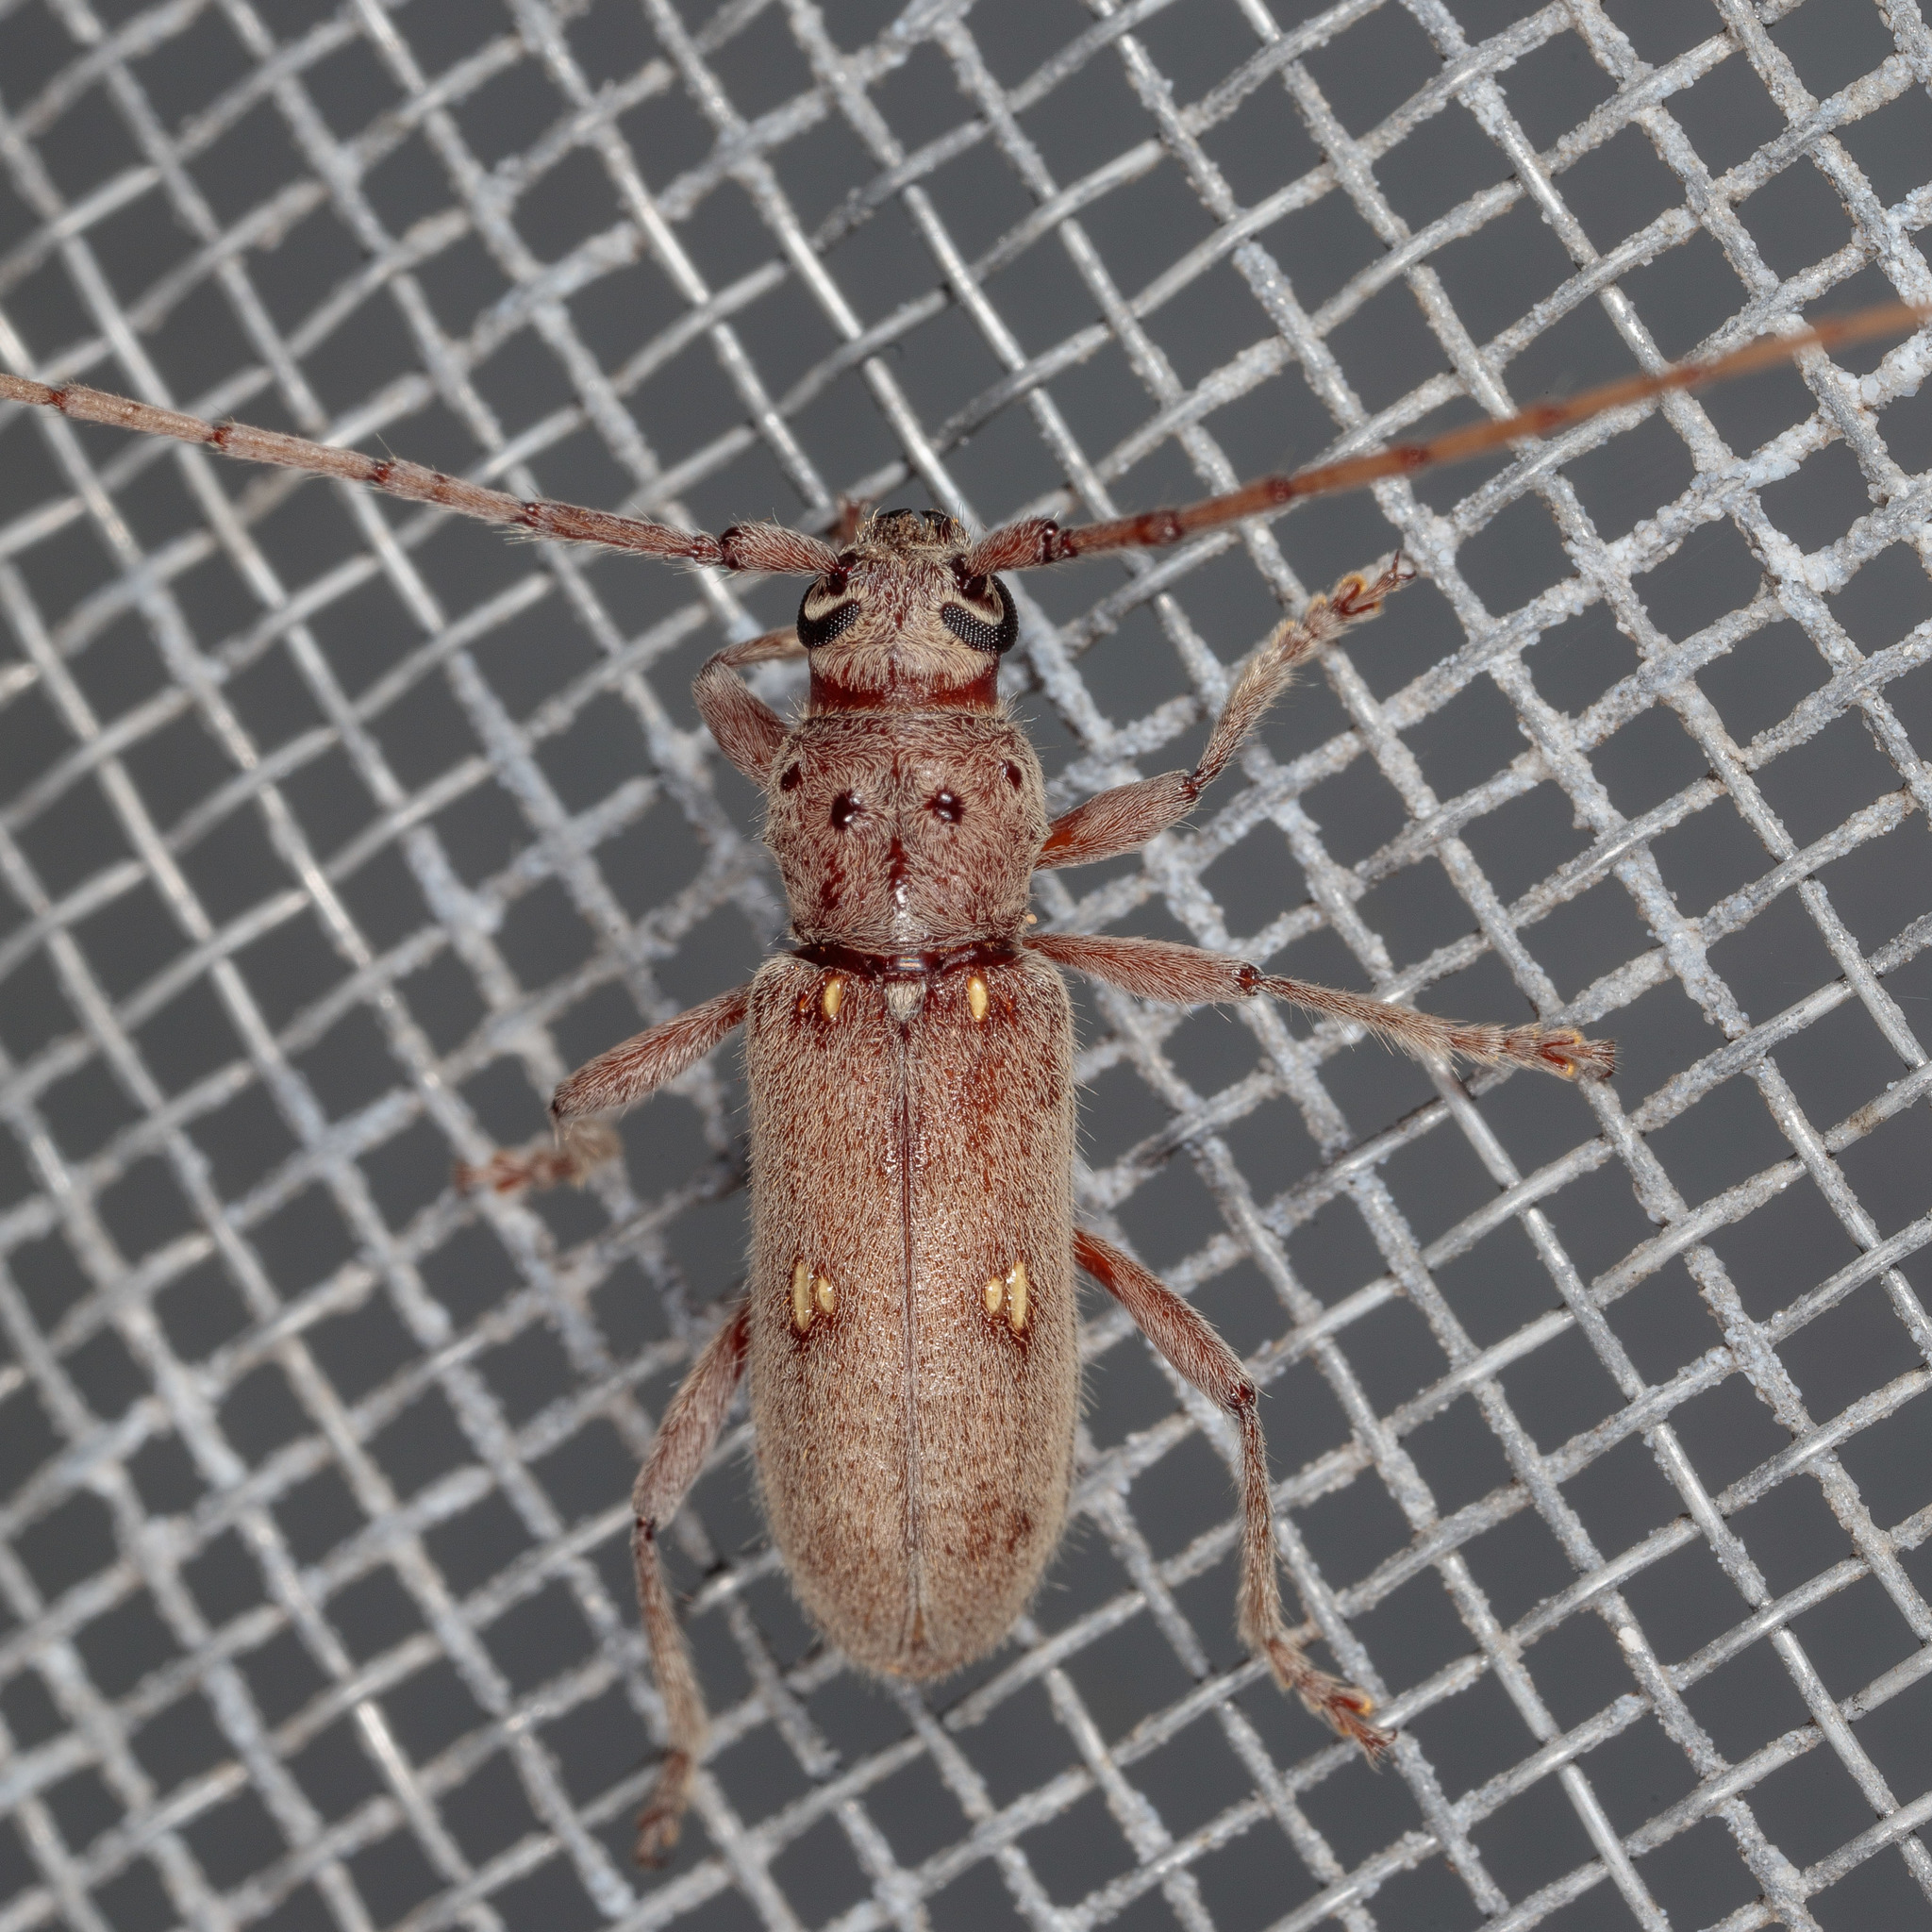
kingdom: Animalia
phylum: Arthropoda
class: Insecta
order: Coleoptera
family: Cerambycidae
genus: Eburia
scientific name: Eburia mutica
